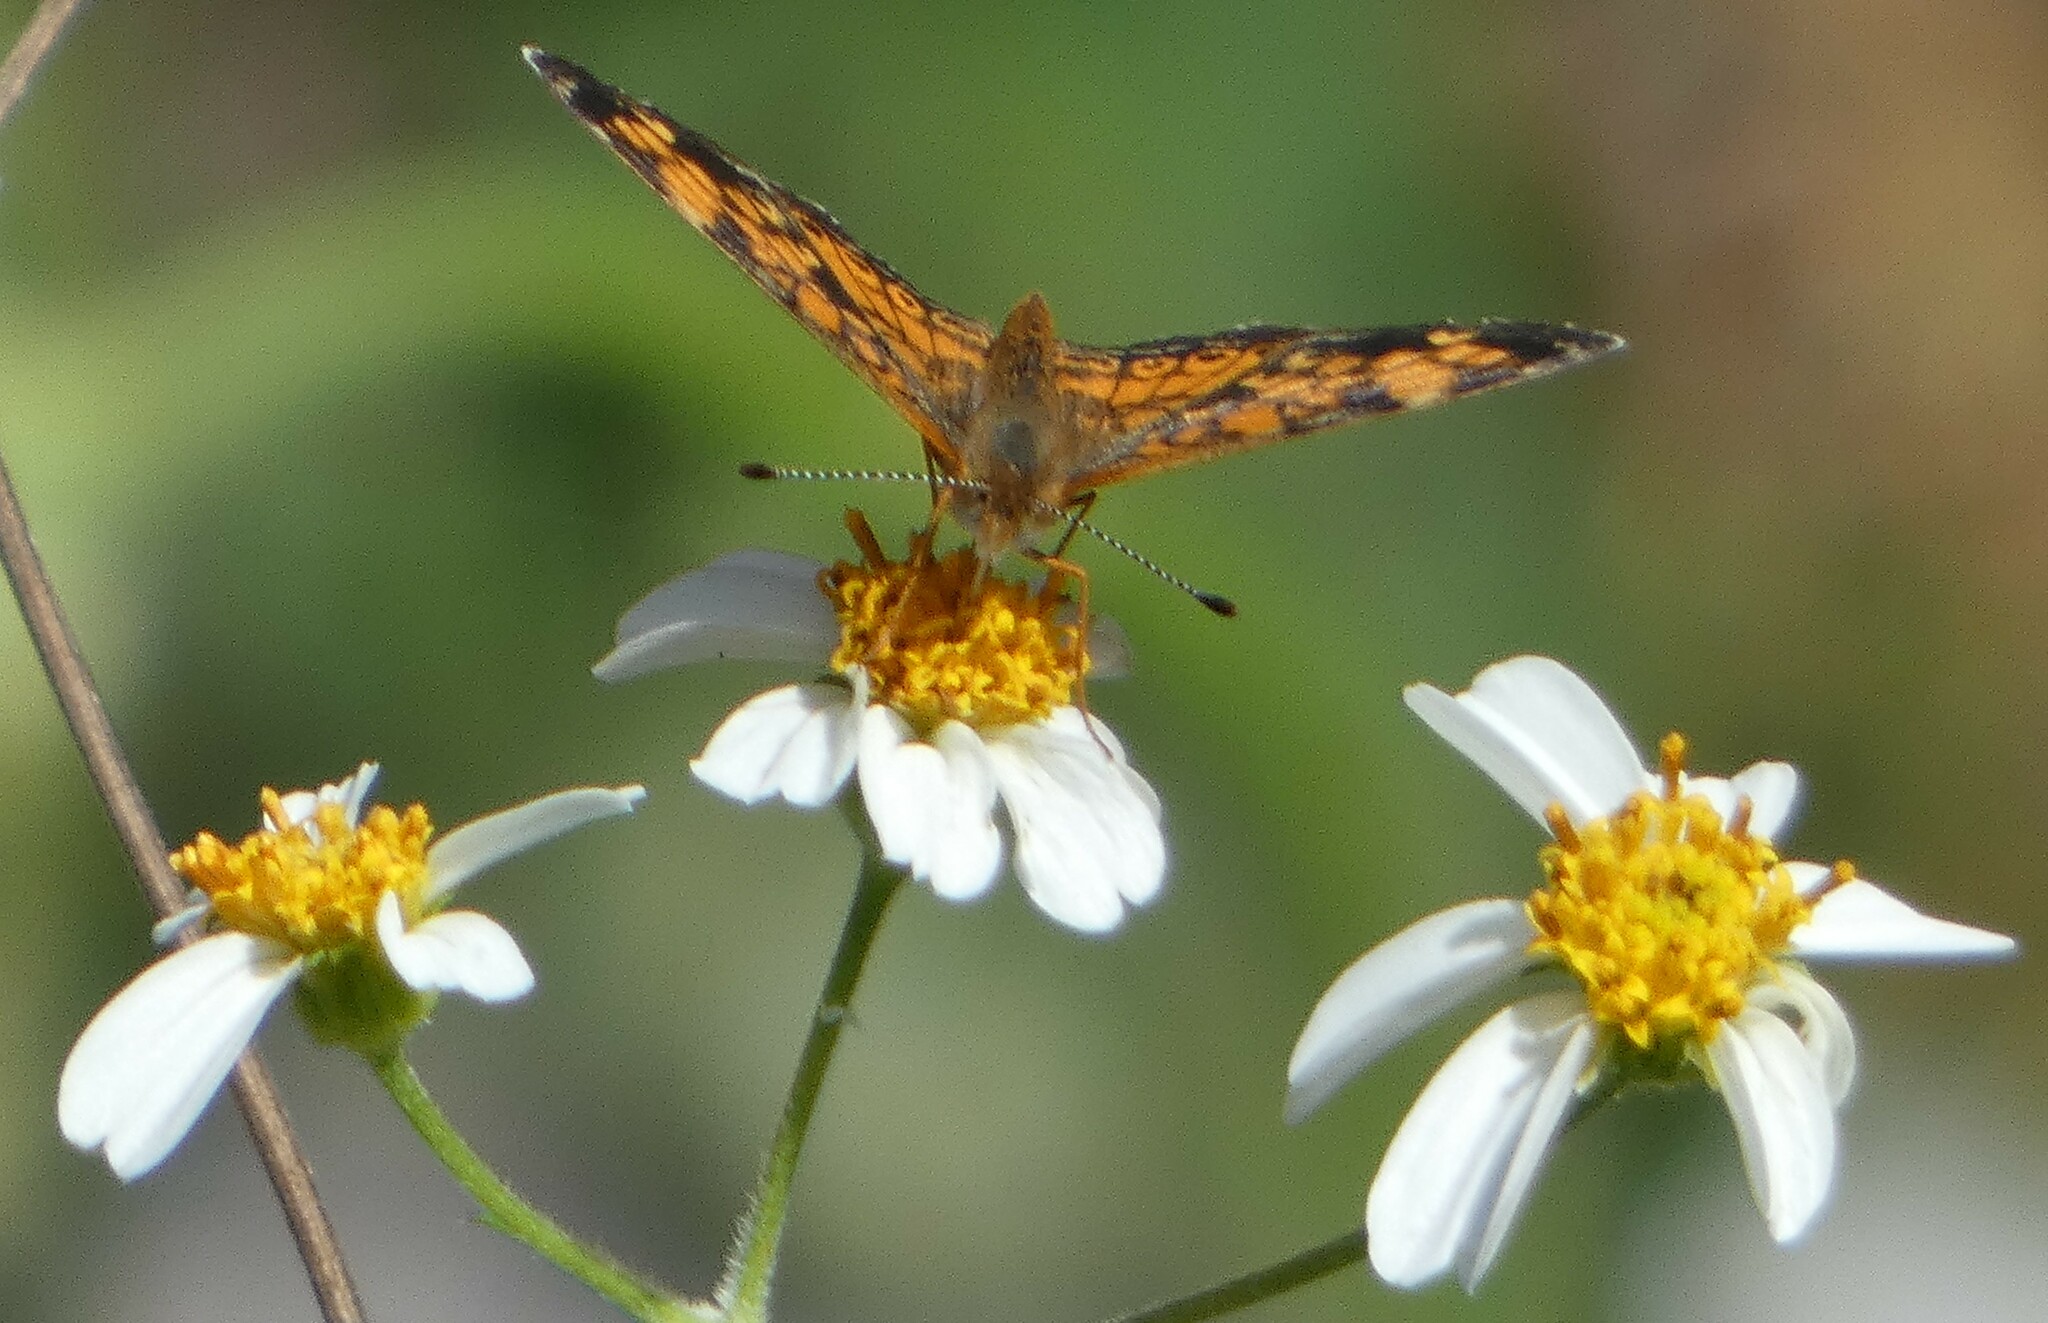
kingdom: Animalia
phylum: Arthropoda
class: Insecta
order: Lepidoptera
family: Nymphalidae
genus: Phyciodes
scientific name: Phyciodes tharos
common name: Pearl crescent
